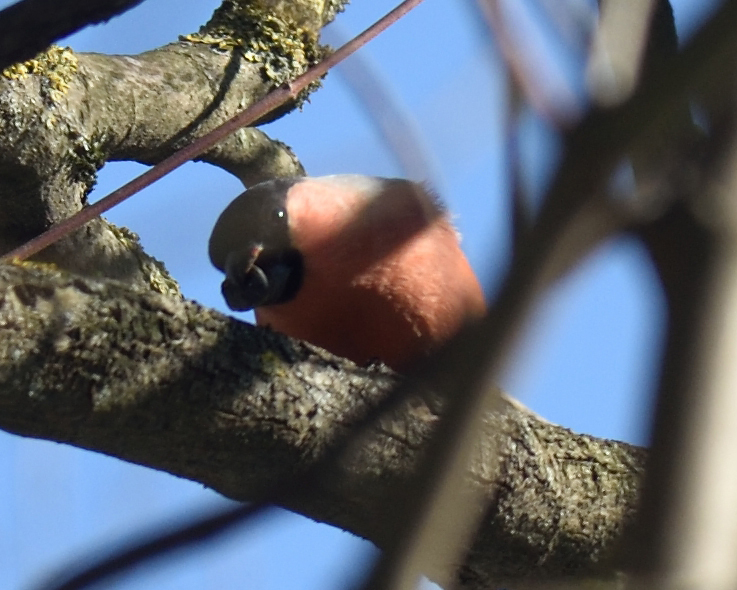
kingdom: Animalia
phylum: Chordata
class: Aves
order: Passeriformes
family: Fringillidae
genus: Pyrrhula
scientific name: Pyrrhula pyrrhula
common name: Eurasian bullfinch
